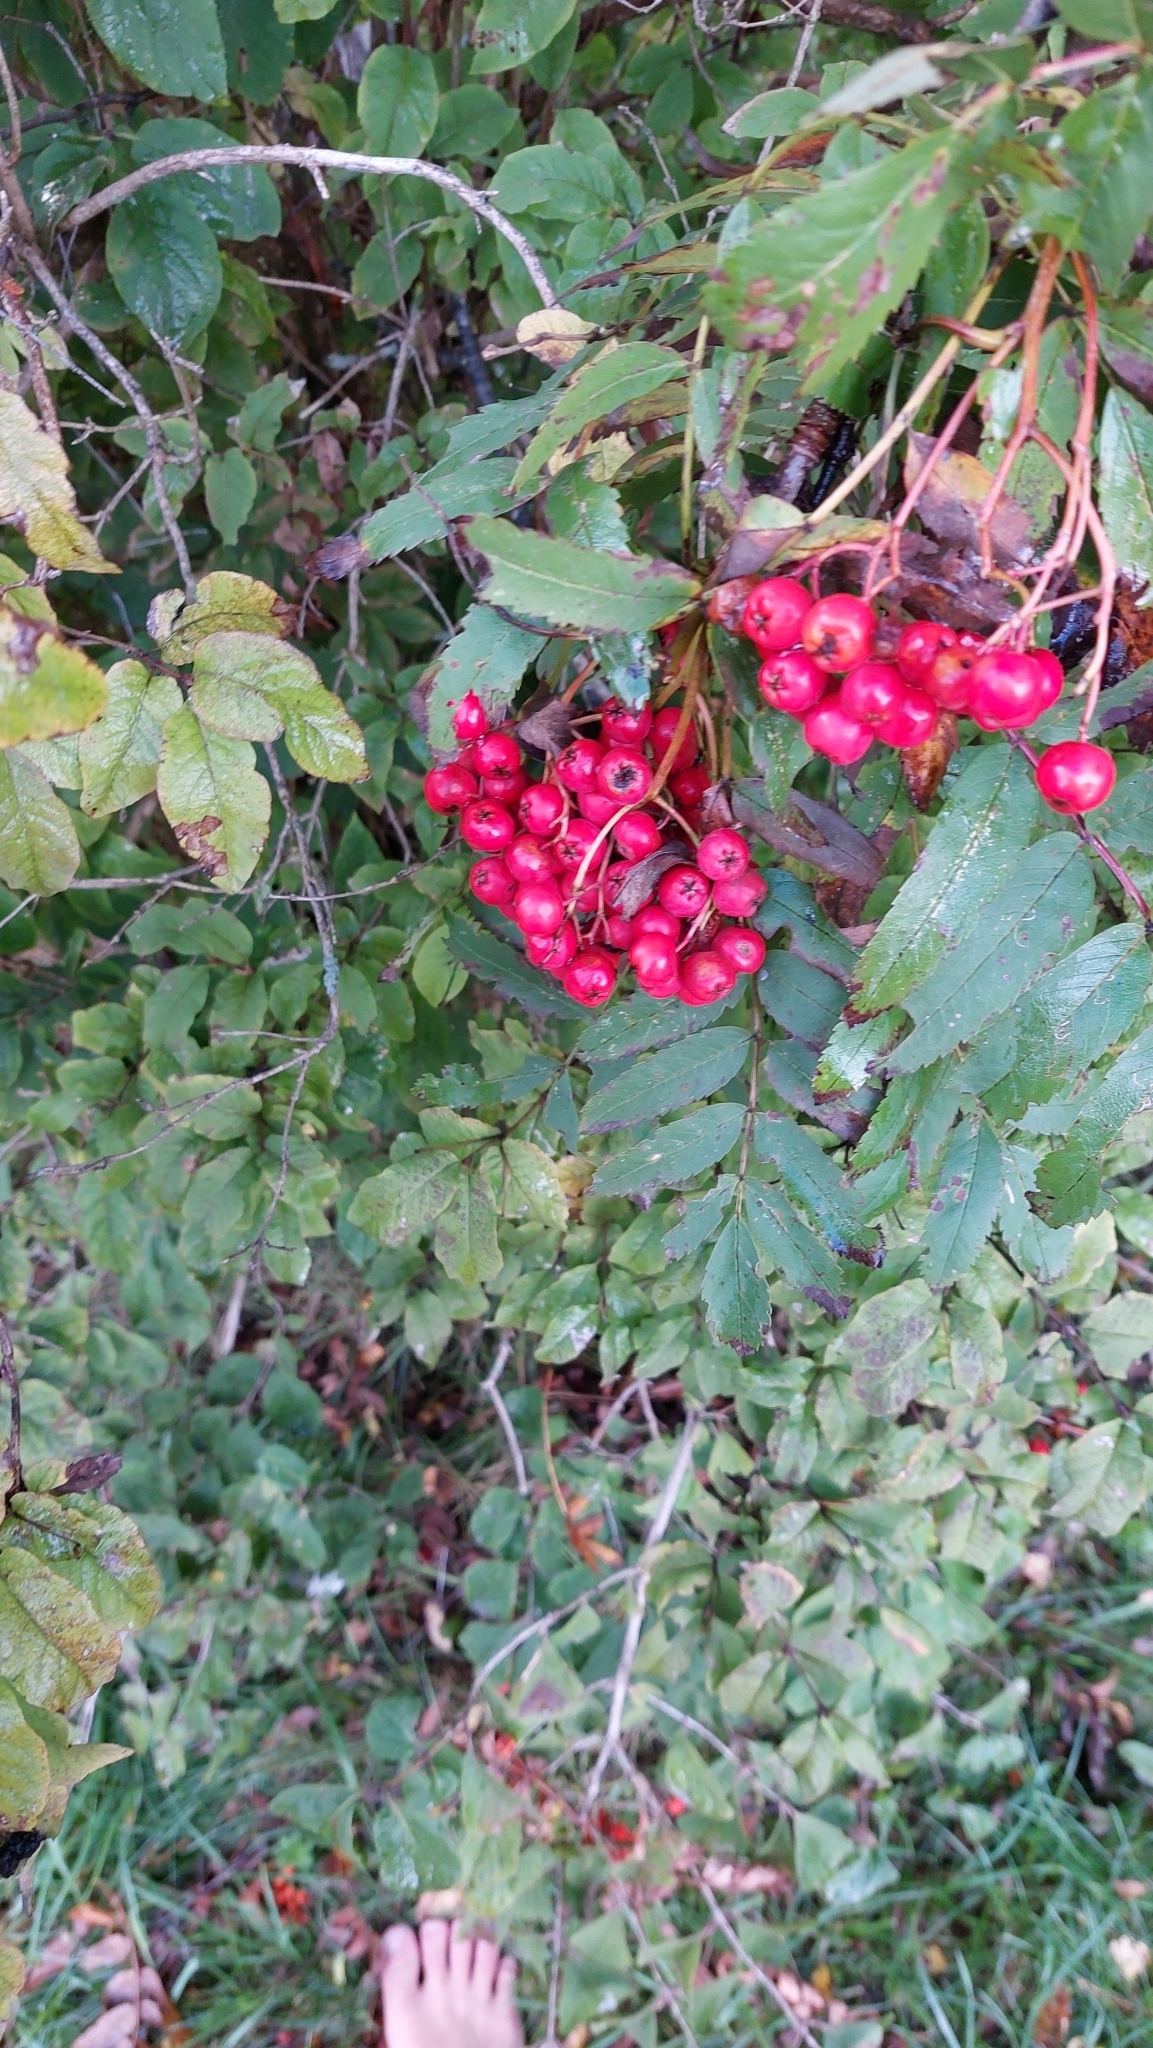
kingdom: Plantae
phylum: Tracheophyta
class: Magnoliopsida
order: Rosales
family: Rosaceae
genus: Sorbus
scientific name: Sorbus aucuparia
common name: Rowan
